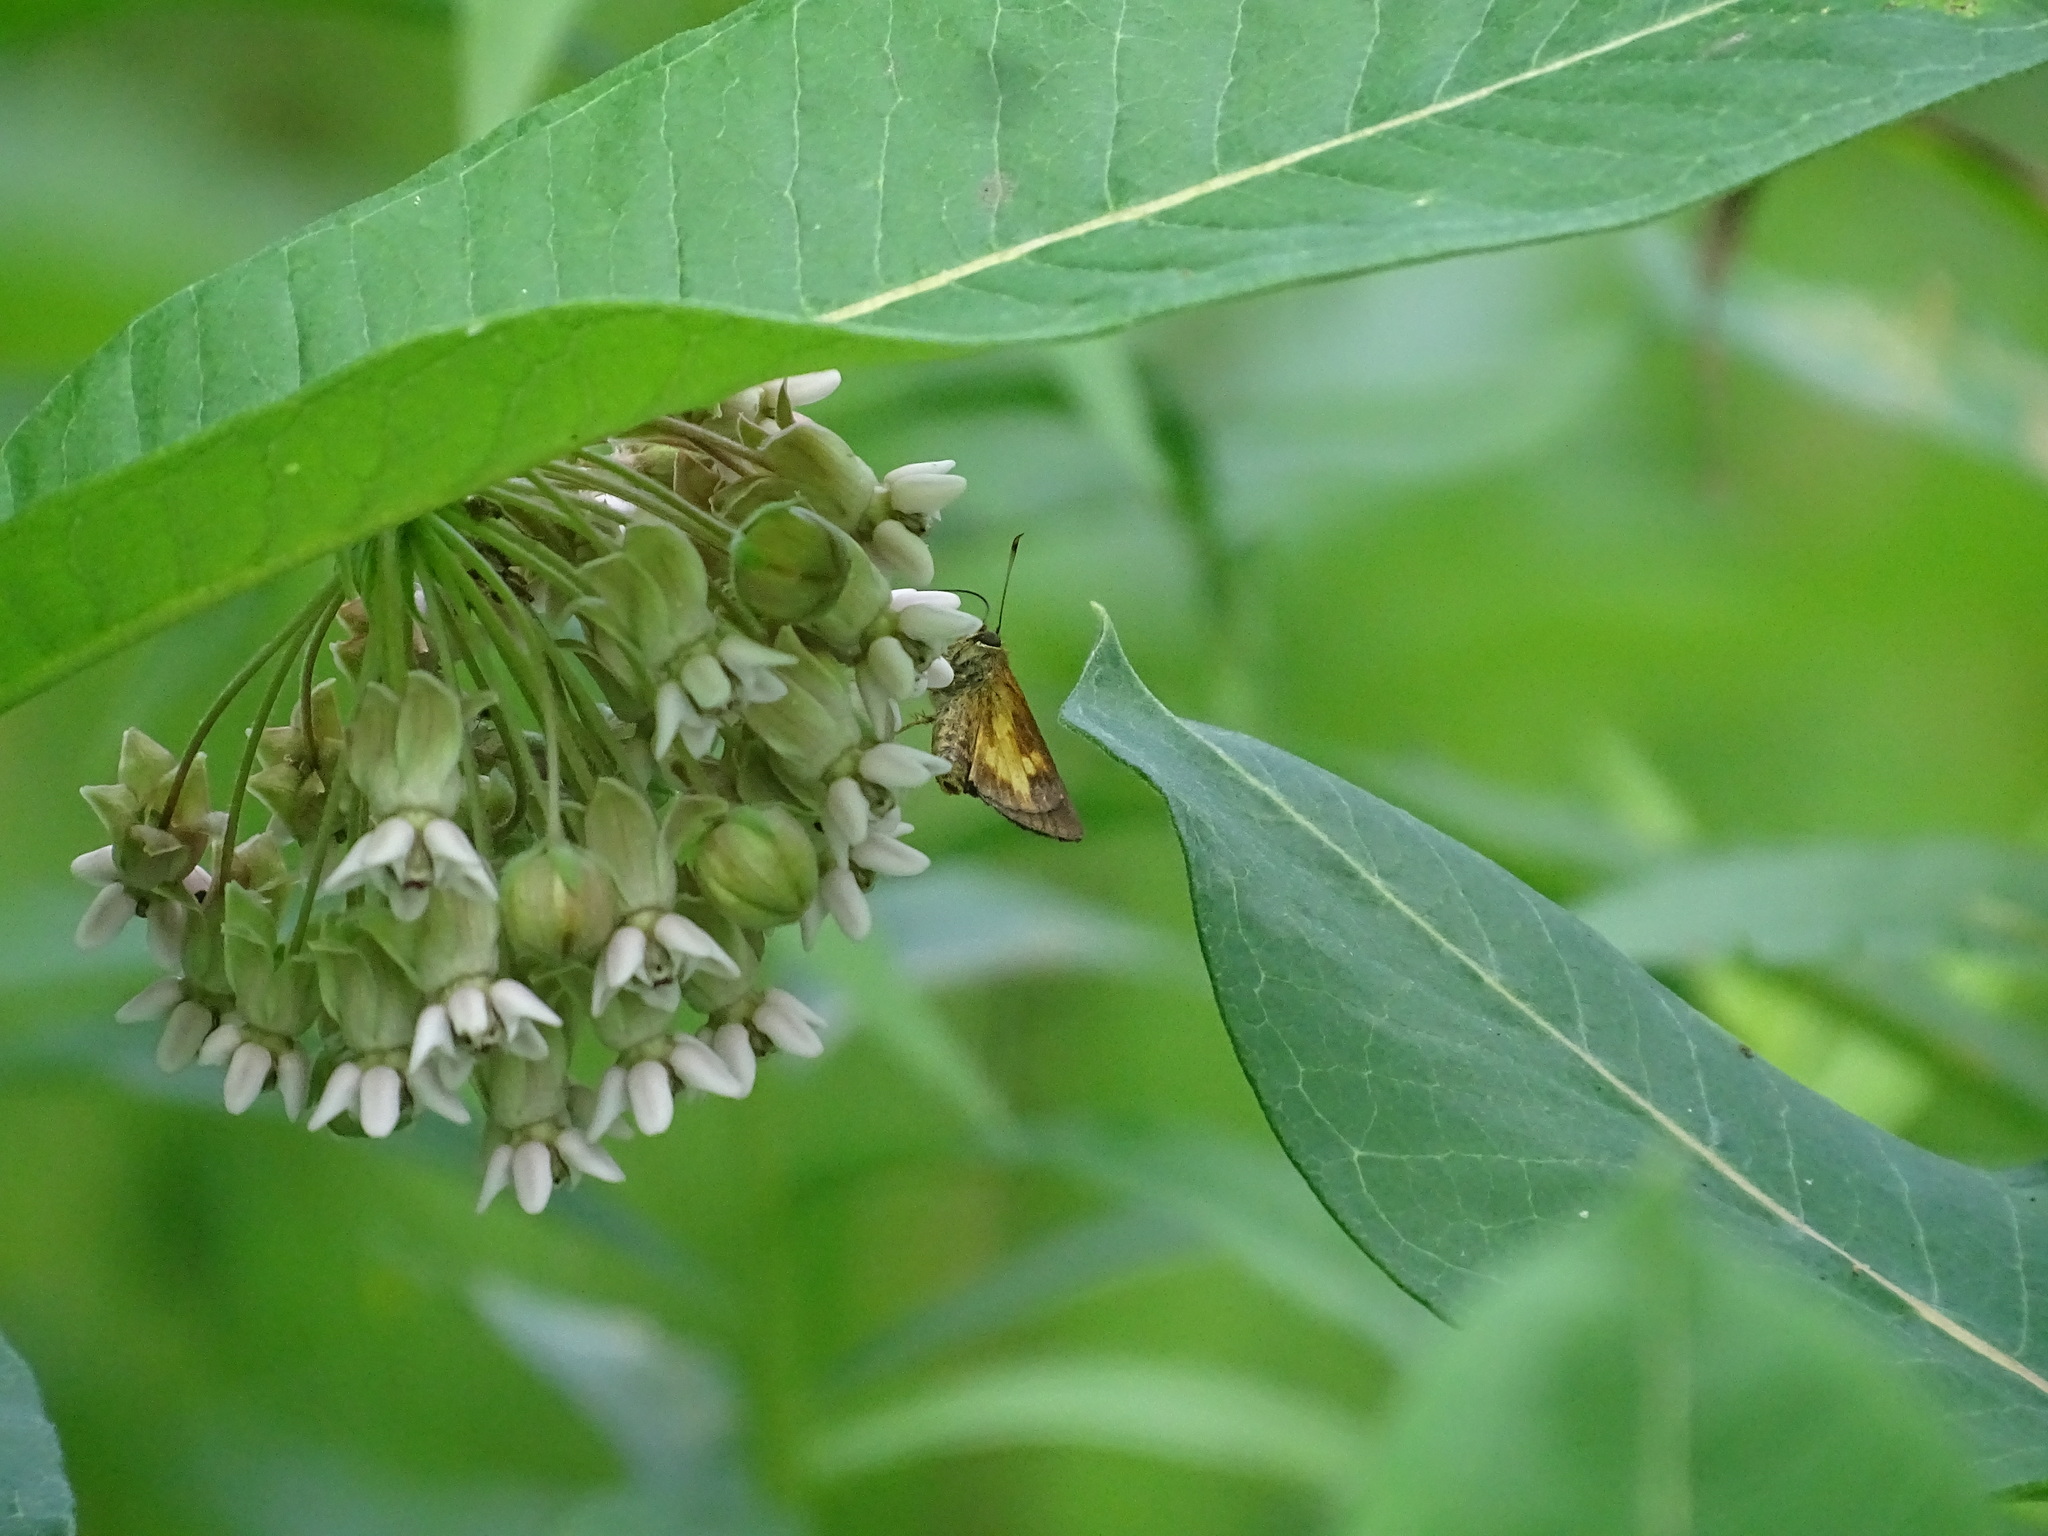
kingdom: Animalia
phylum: Arthropoda
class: Insecta
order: Lepidoptera
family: Hesperiidae
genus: Poanes
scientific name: Poanes massasoit
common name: Mulberrywing
